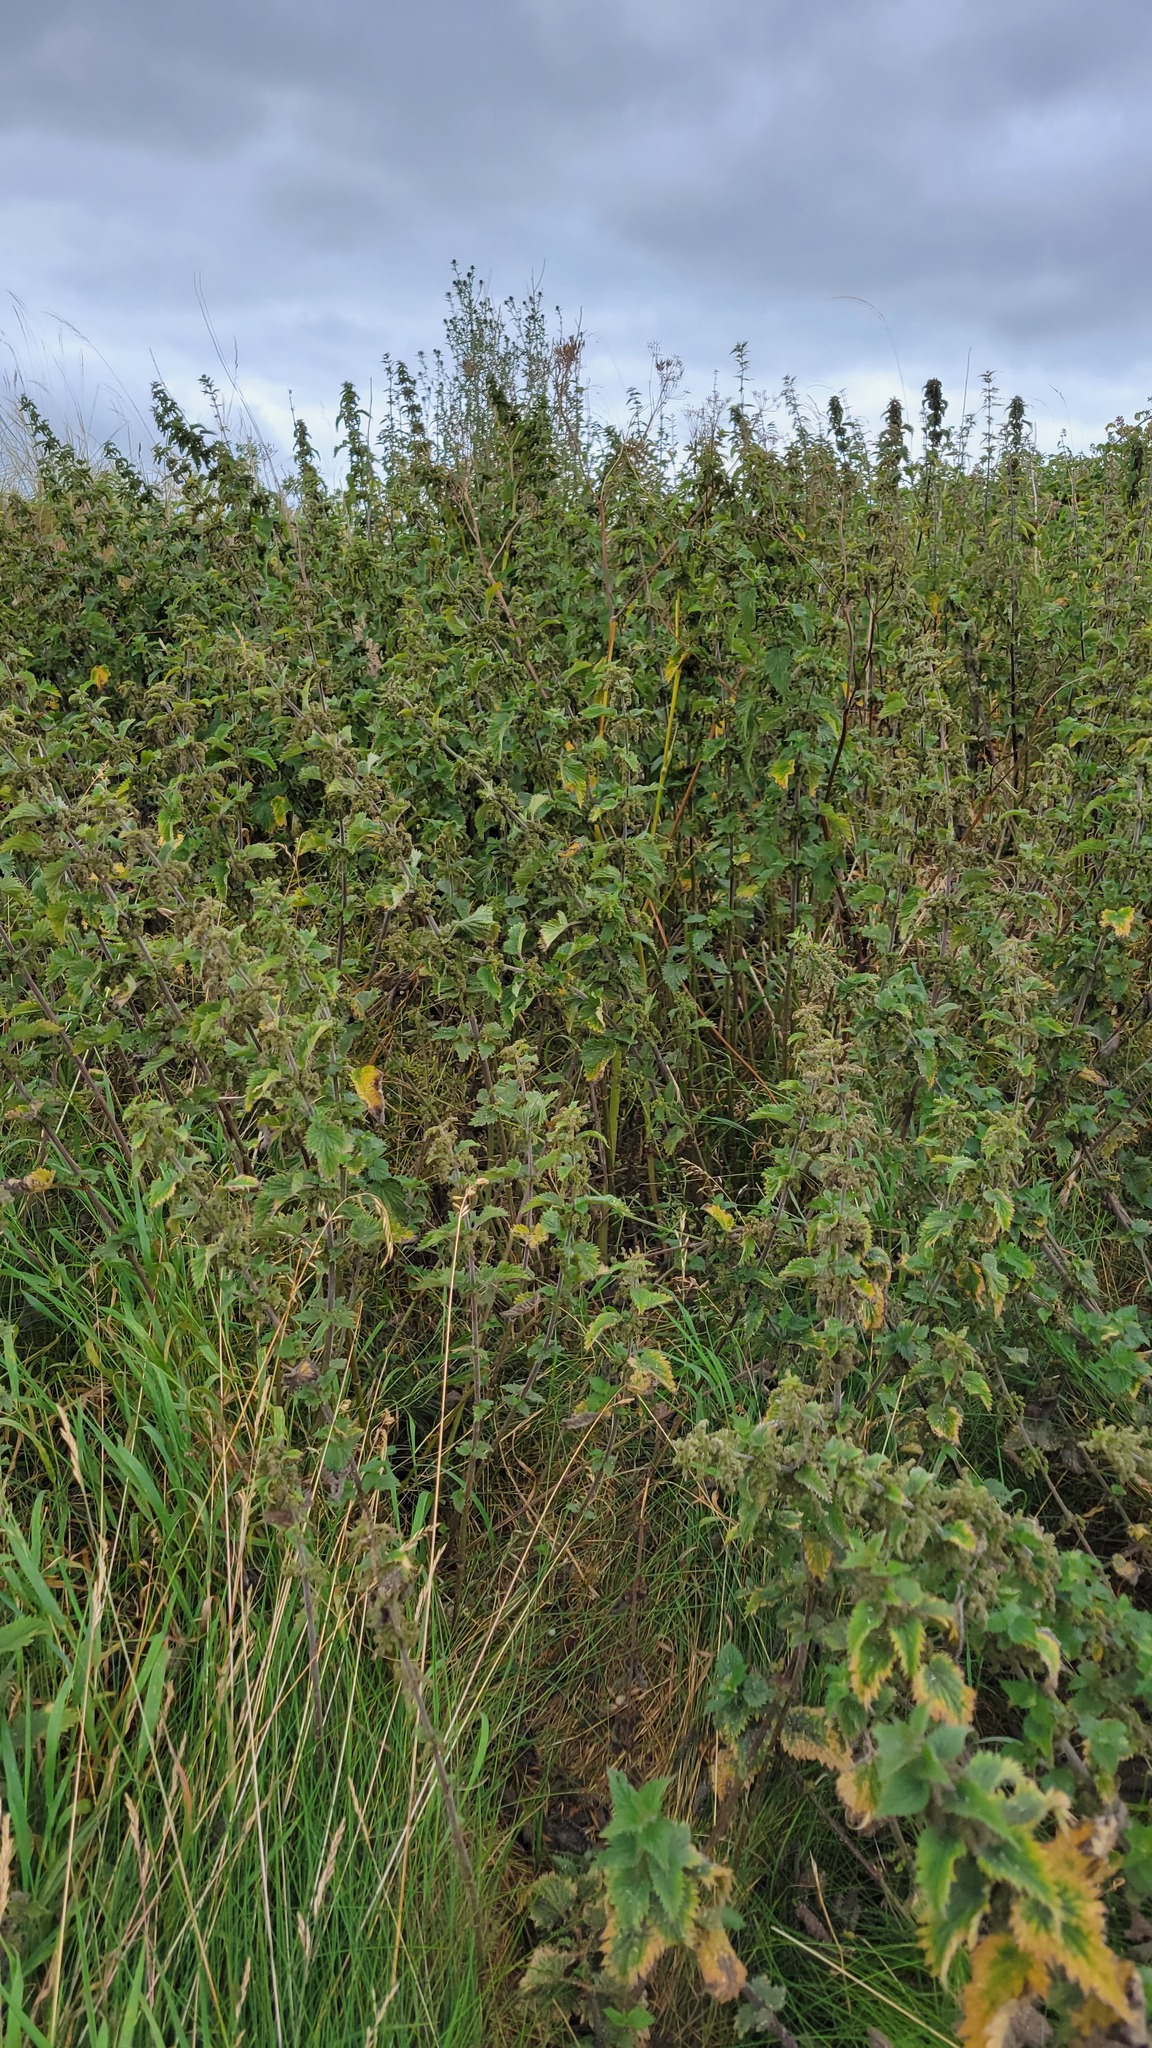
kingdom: Plantae
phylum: Tracheophyta
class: Magnoliopsida
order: Rosales
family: Urticaceae
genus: Urtica
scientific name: Urtica dioica
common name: Common nettle
